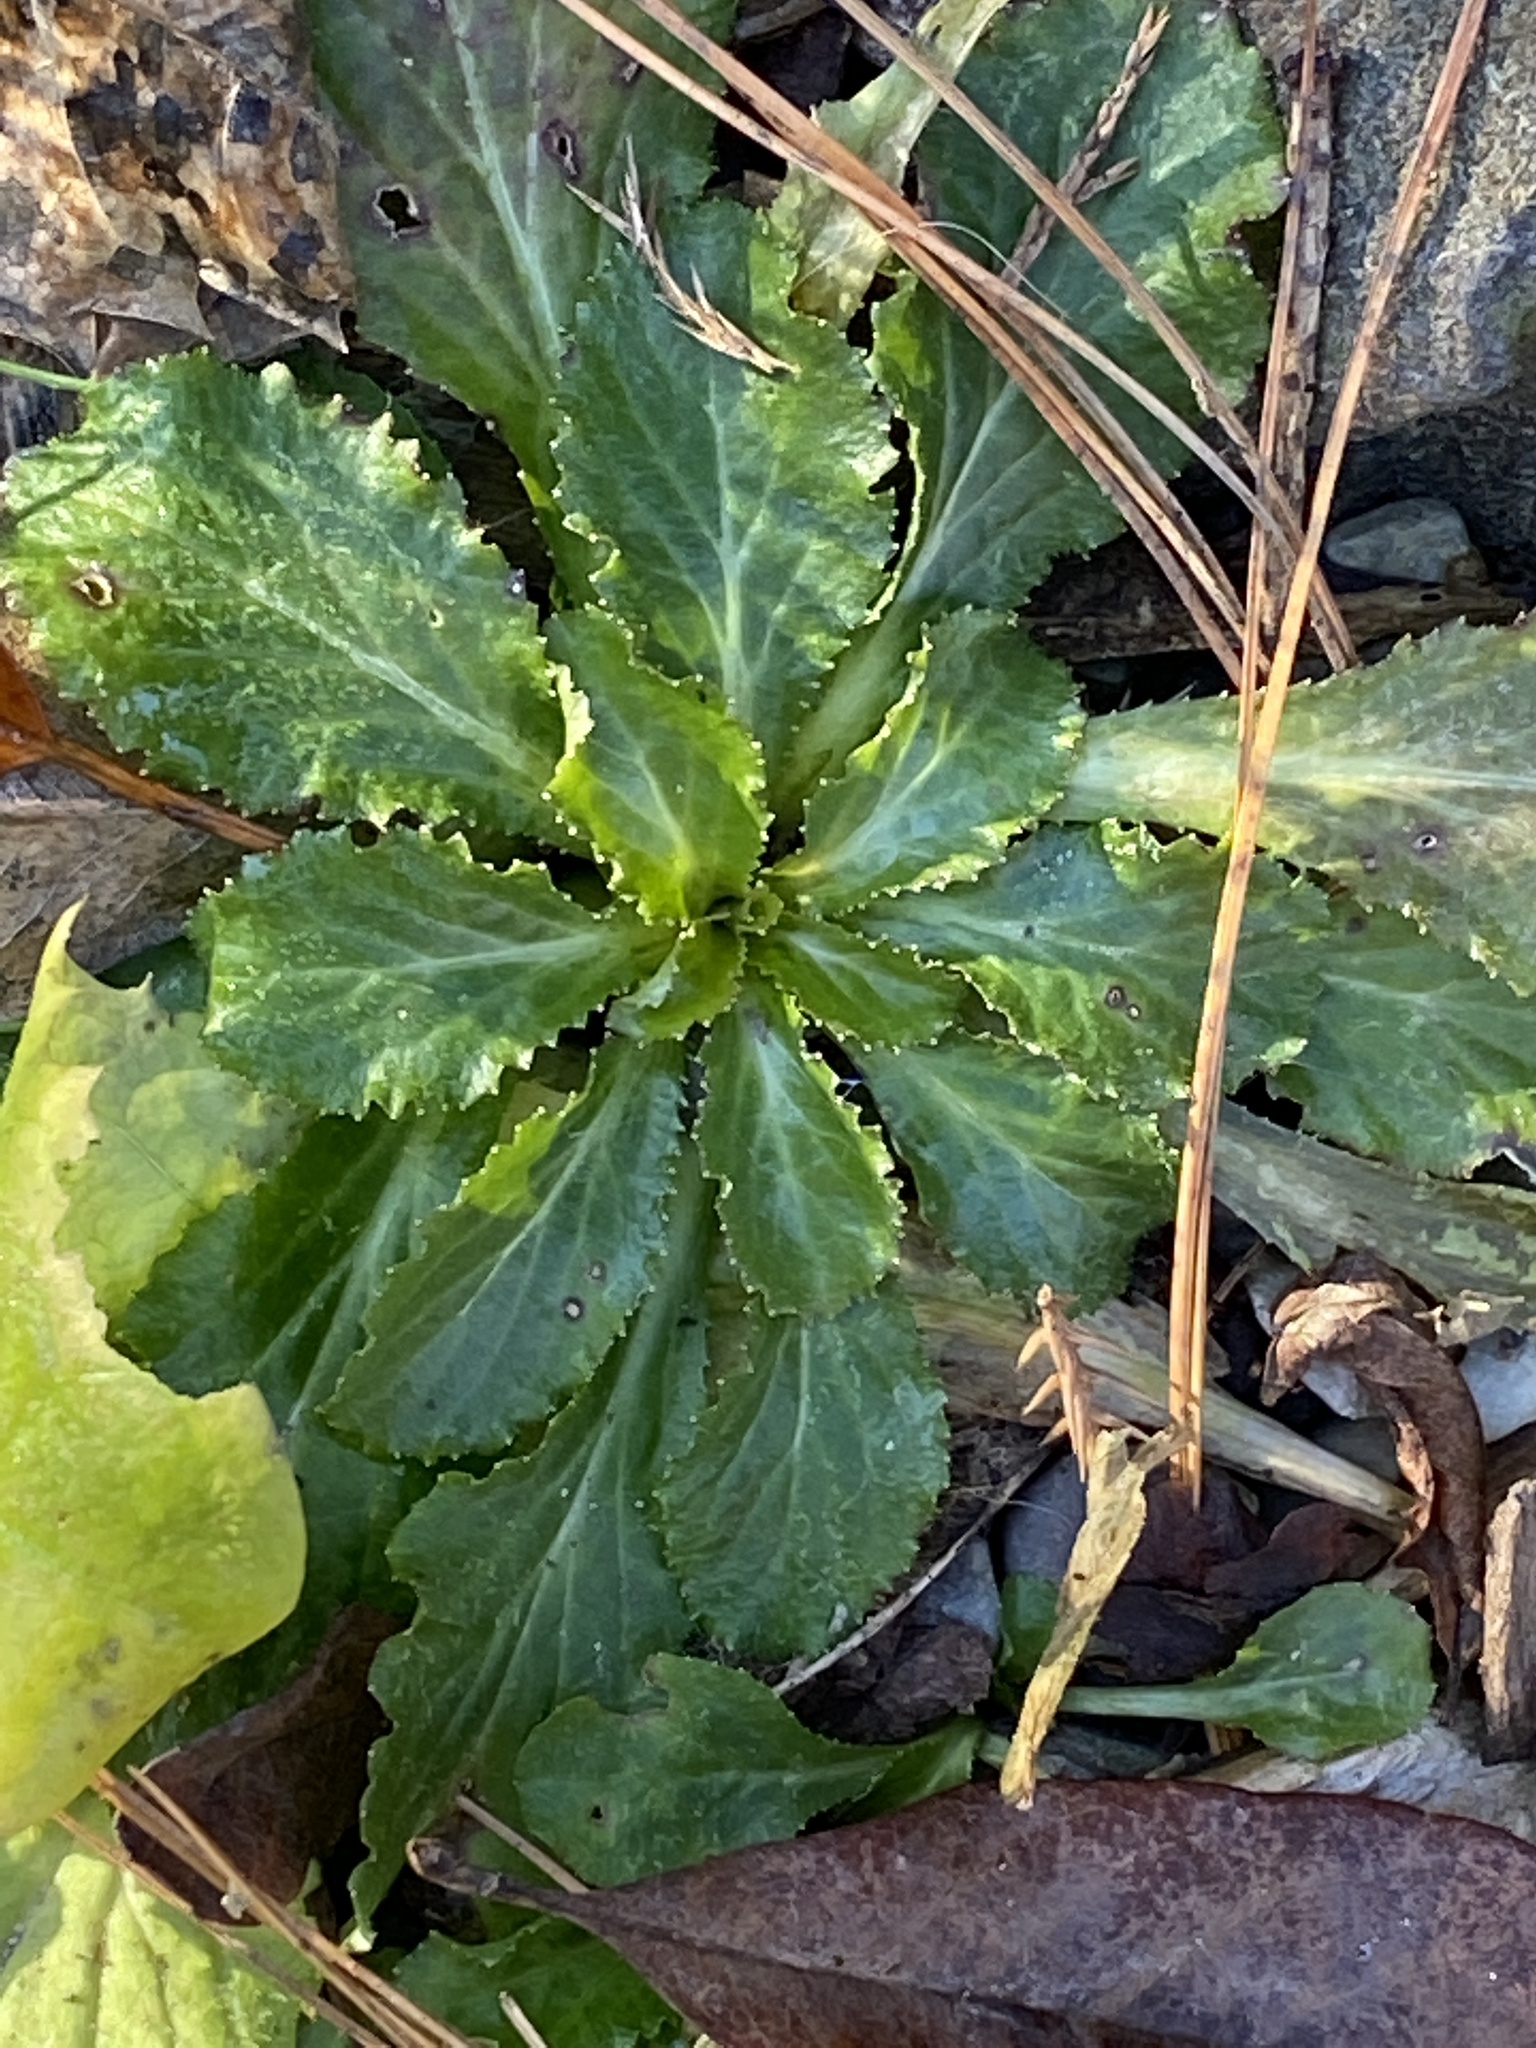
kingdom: Plantae
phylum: Tracheophyta
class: Magnoliopsida
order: Asterales
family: Campanulaceae
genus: Lobelia
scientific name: Lobelia inflata
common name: Indian tobacco
